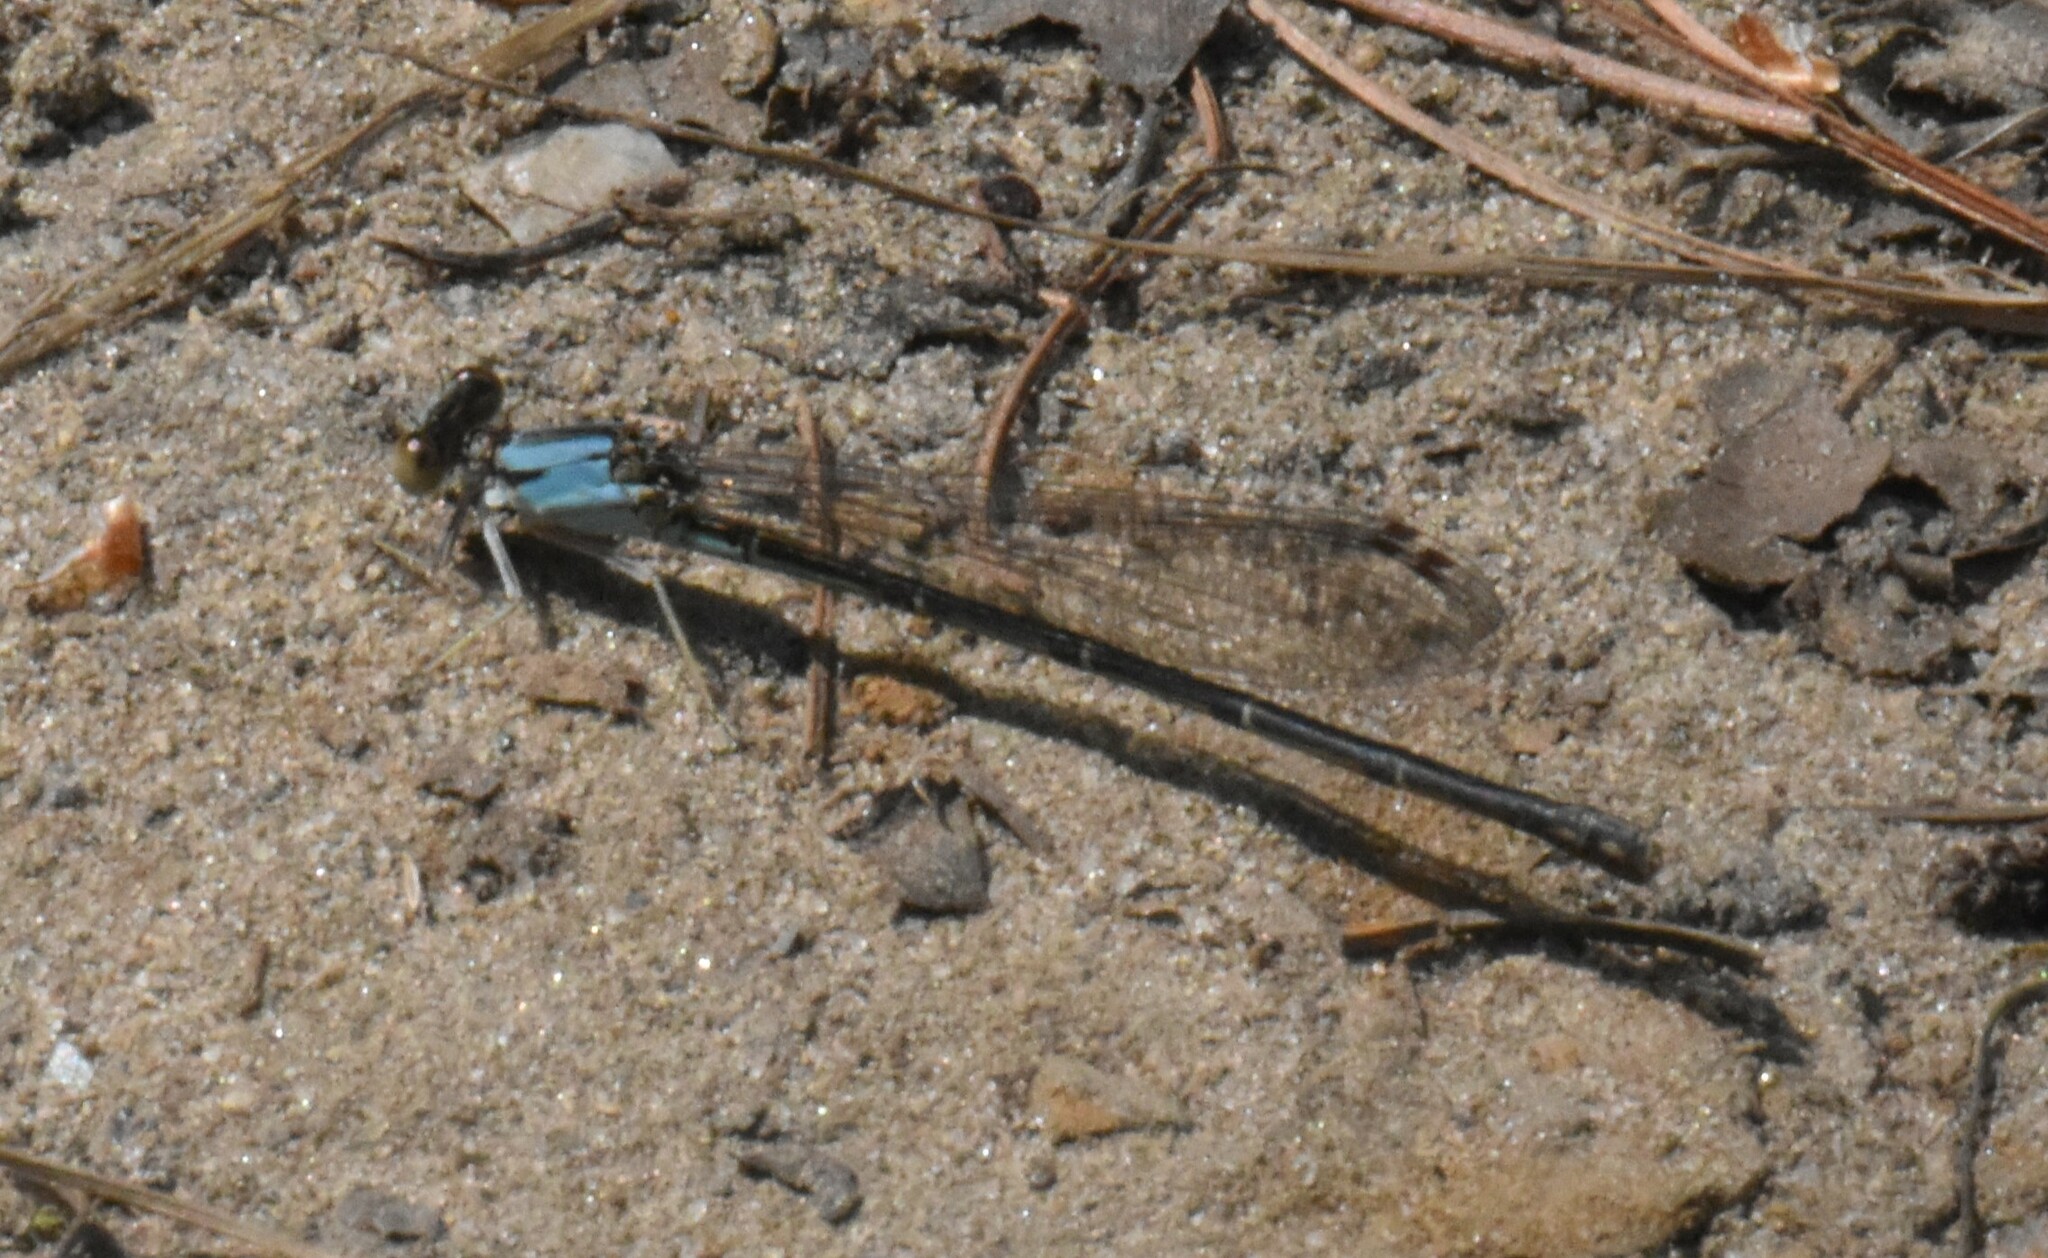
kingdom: Animalia
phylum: Arthropoda
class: Insecta
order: Odonata
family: Coenagrionidae
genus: Argia
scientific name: Argia apicalis
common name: Blue-fronted dancer
